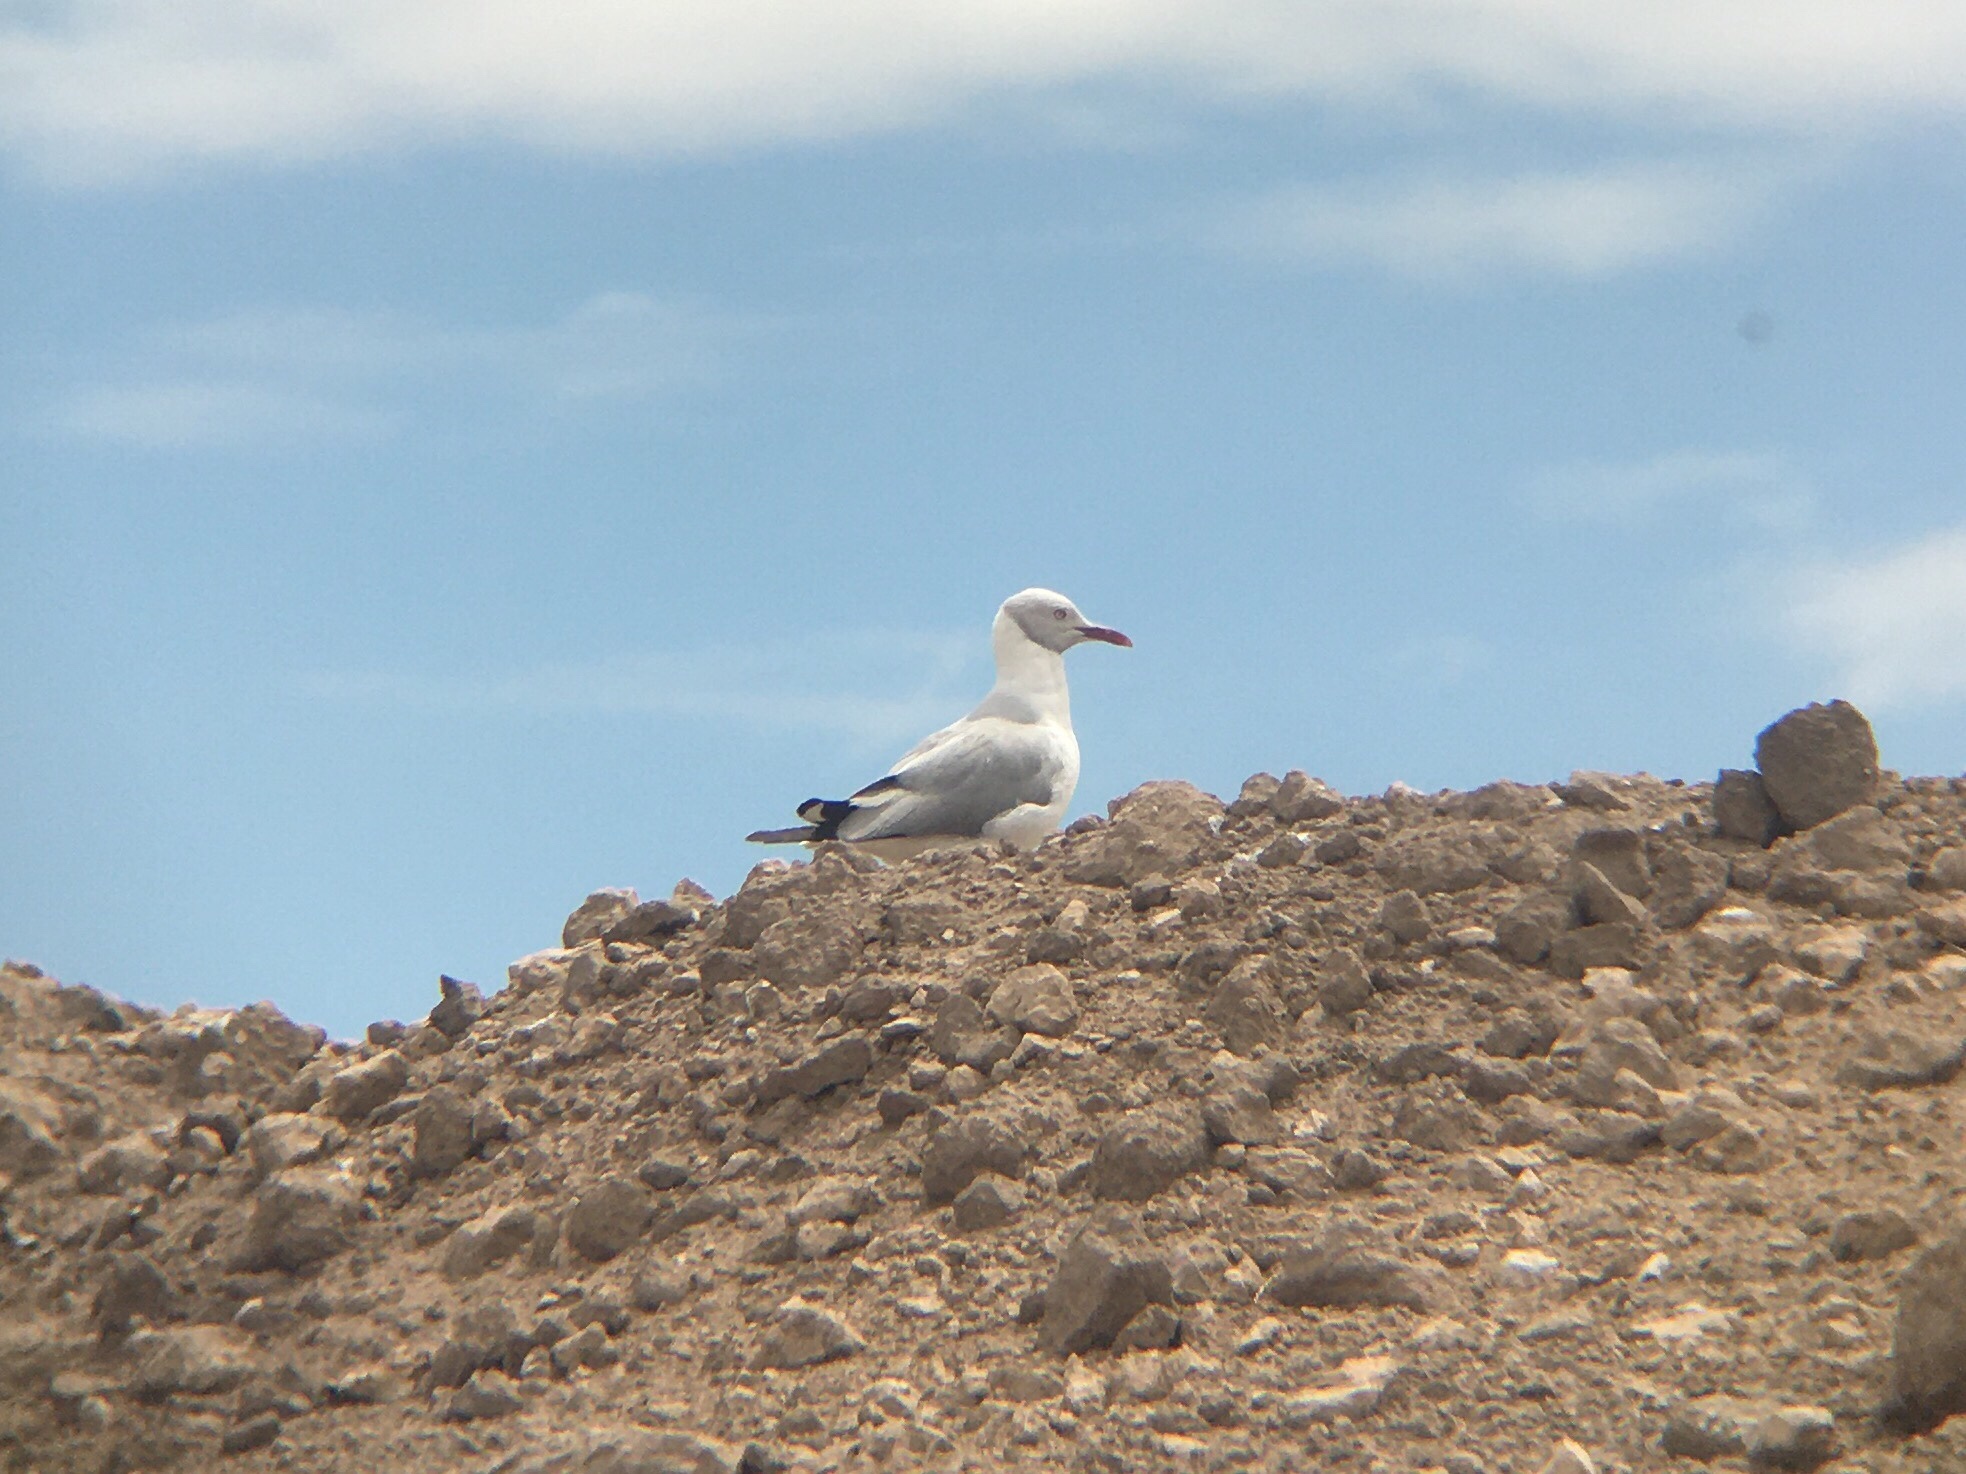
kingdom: Animalia
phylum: Chordata
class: Aves
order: Charadriiformes
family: Laridae
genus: Chroicocephalus
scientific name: Chroicocephalus cirrocephalus
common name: Grey-headed gull
